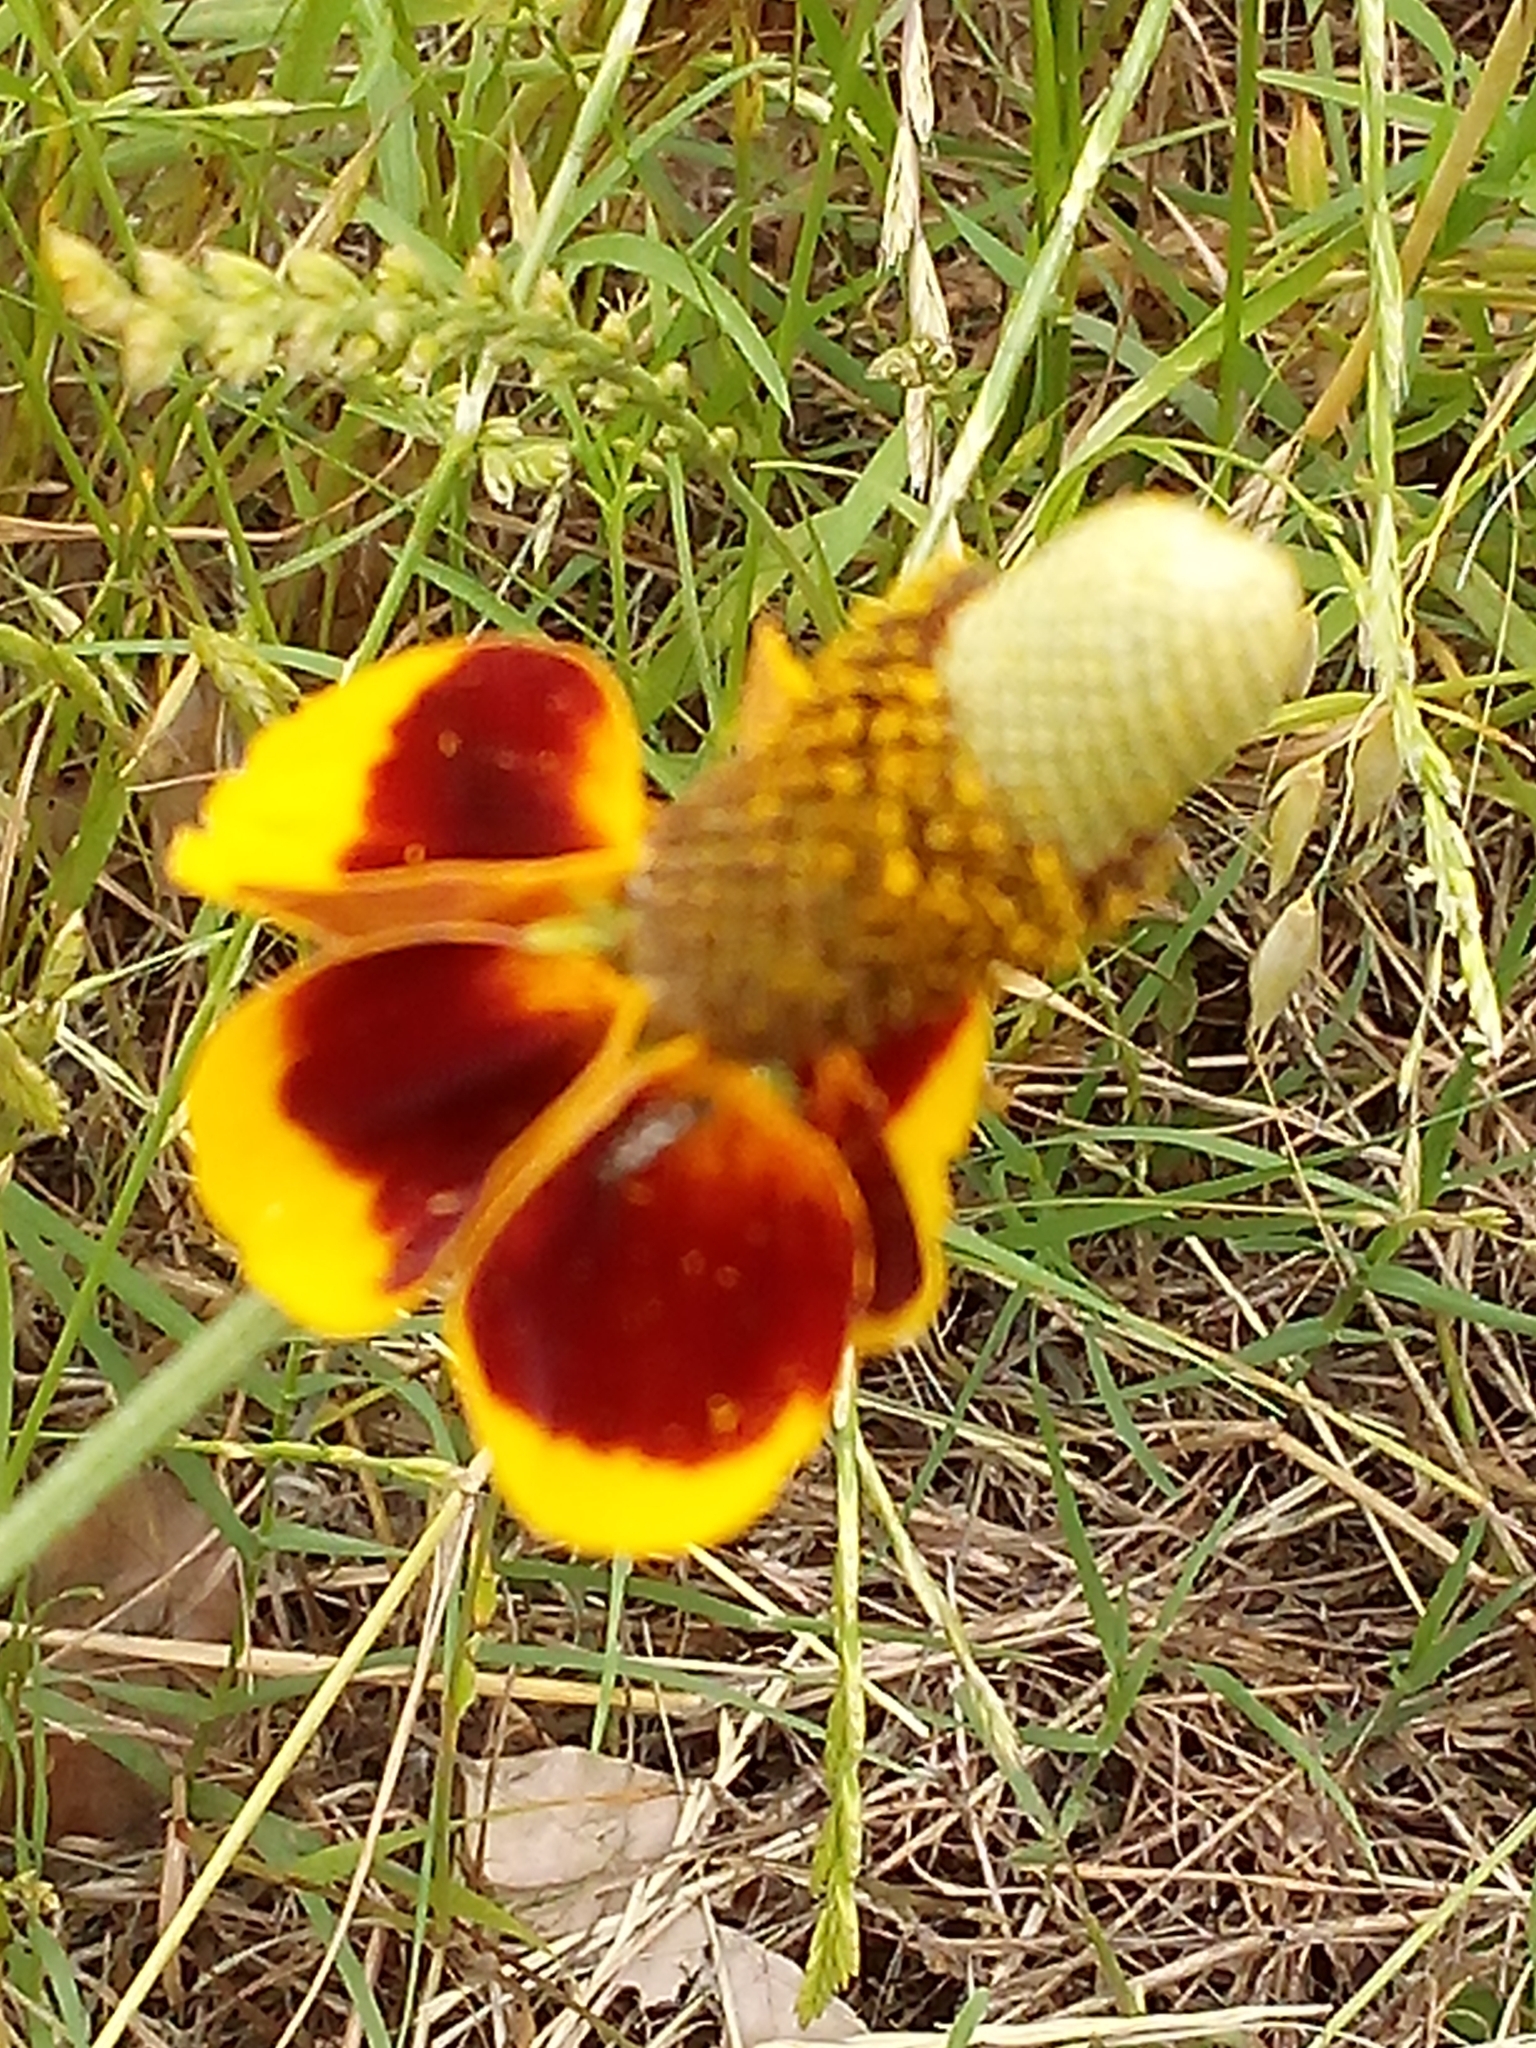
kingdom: Plantae
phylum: Tracheophyta
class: Magnoliopsida
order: Asterales
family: Asteraceae
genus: Ratibida
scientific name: Ratibida columnifera
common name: Prairie coneflower
